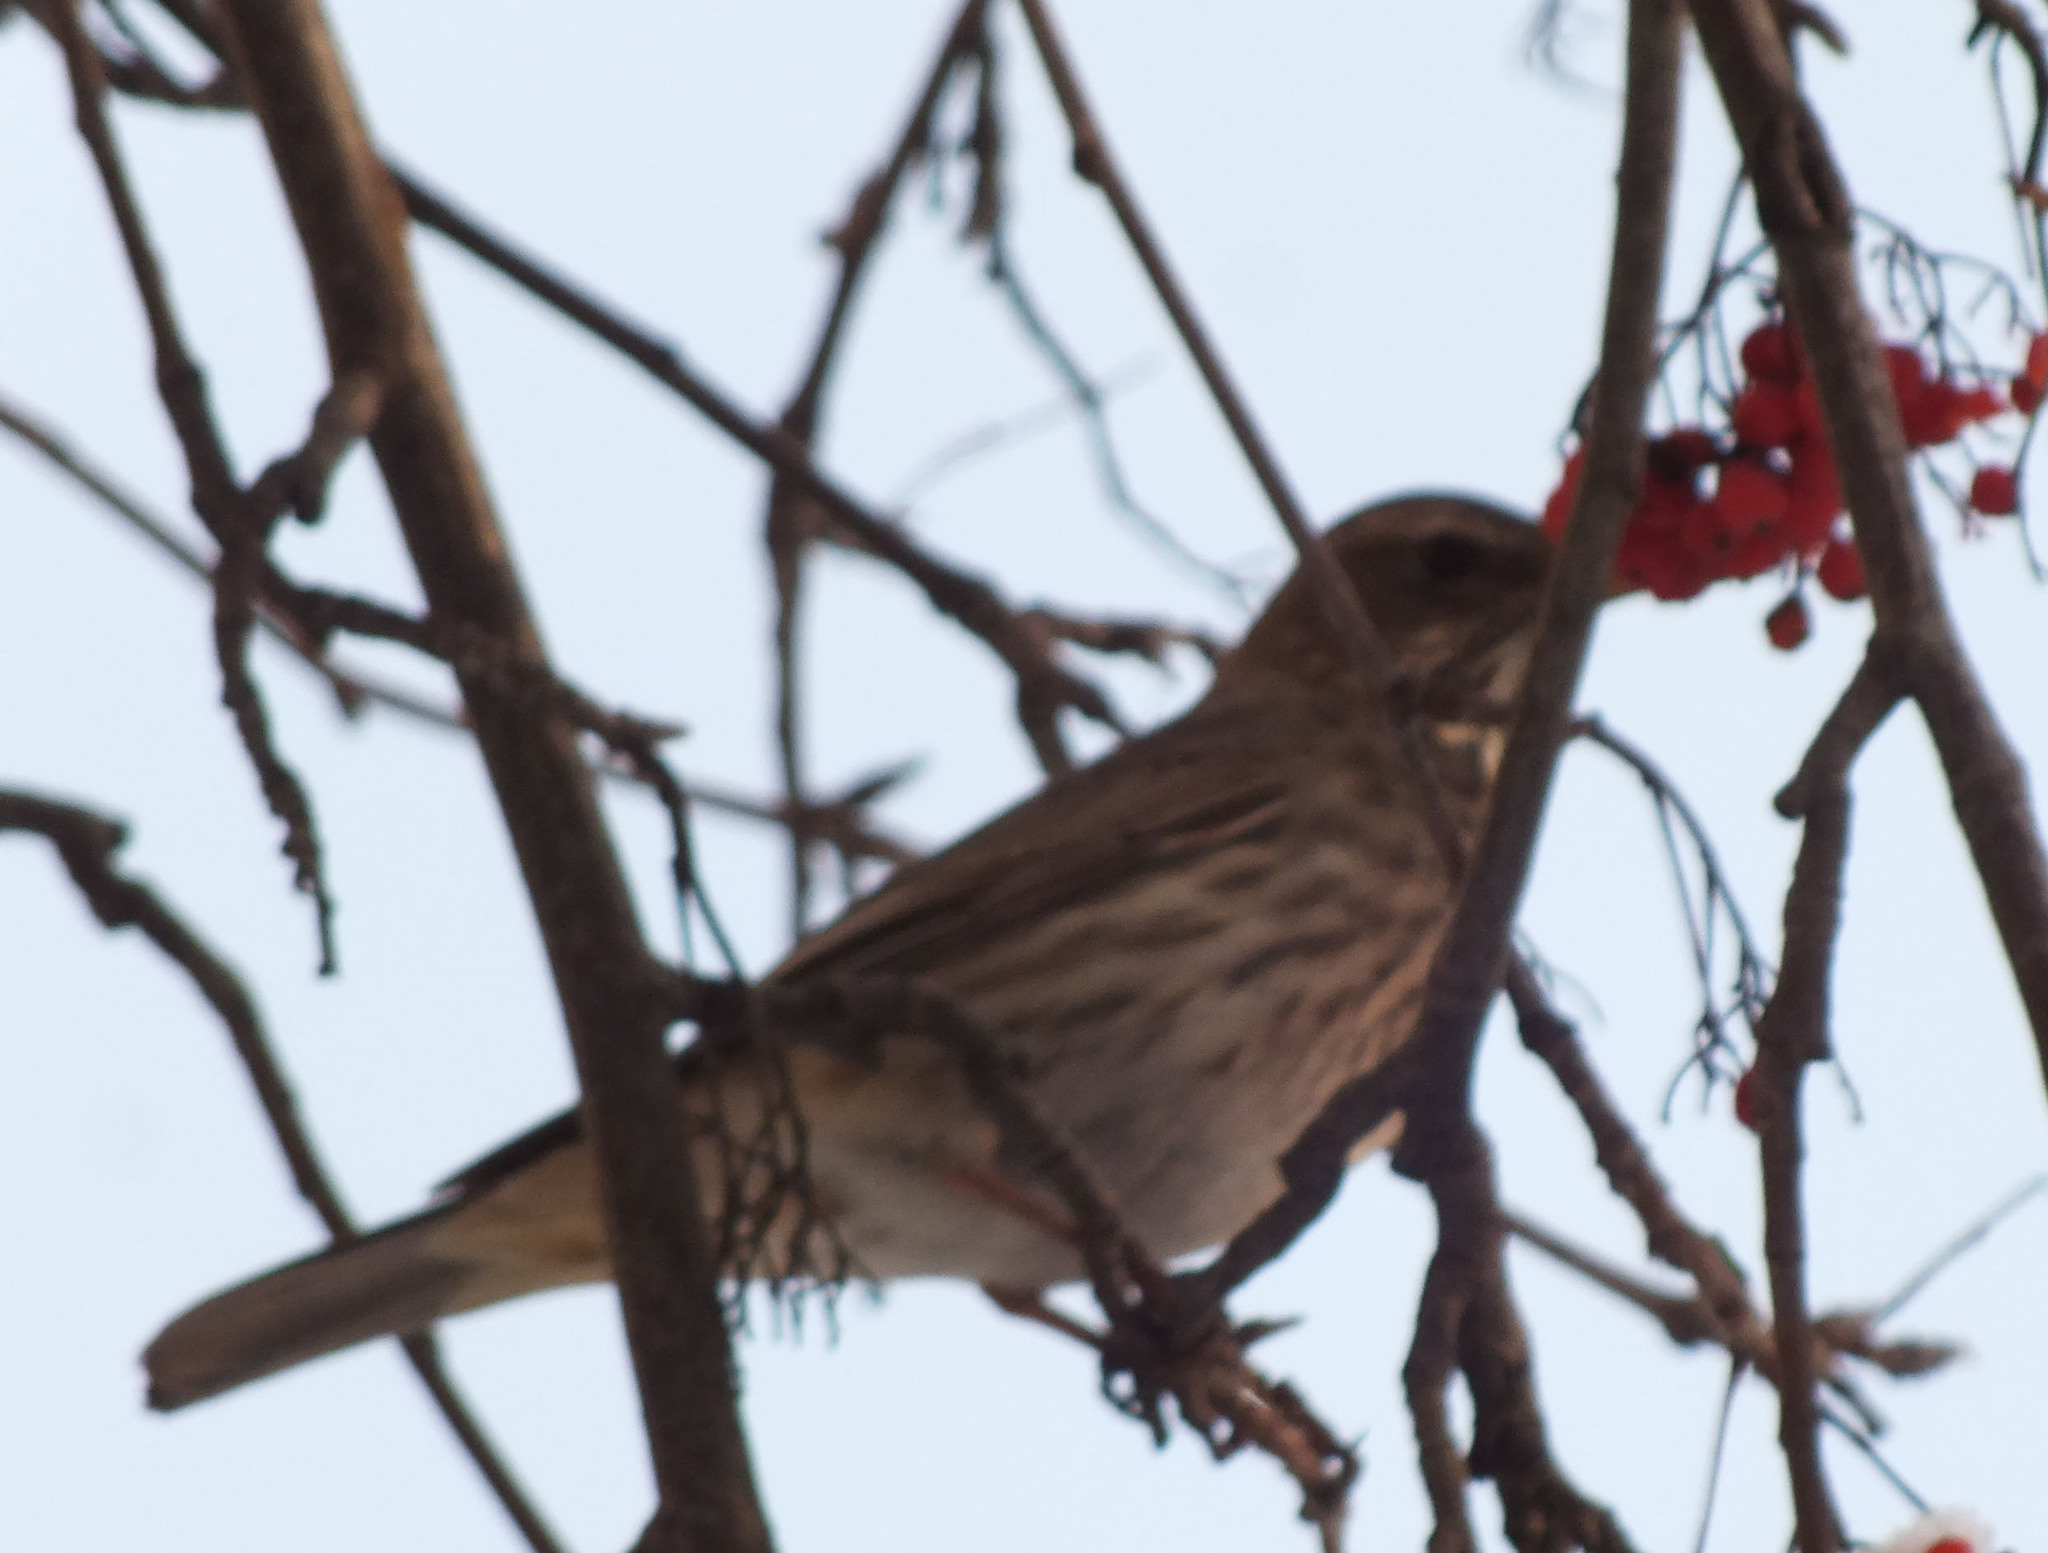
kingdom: Animalia
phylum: Chordata
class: Aves
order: Passeriformes
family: Turdidae
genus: Turdus
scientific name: Turdus pilaris
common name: Fieldfare
